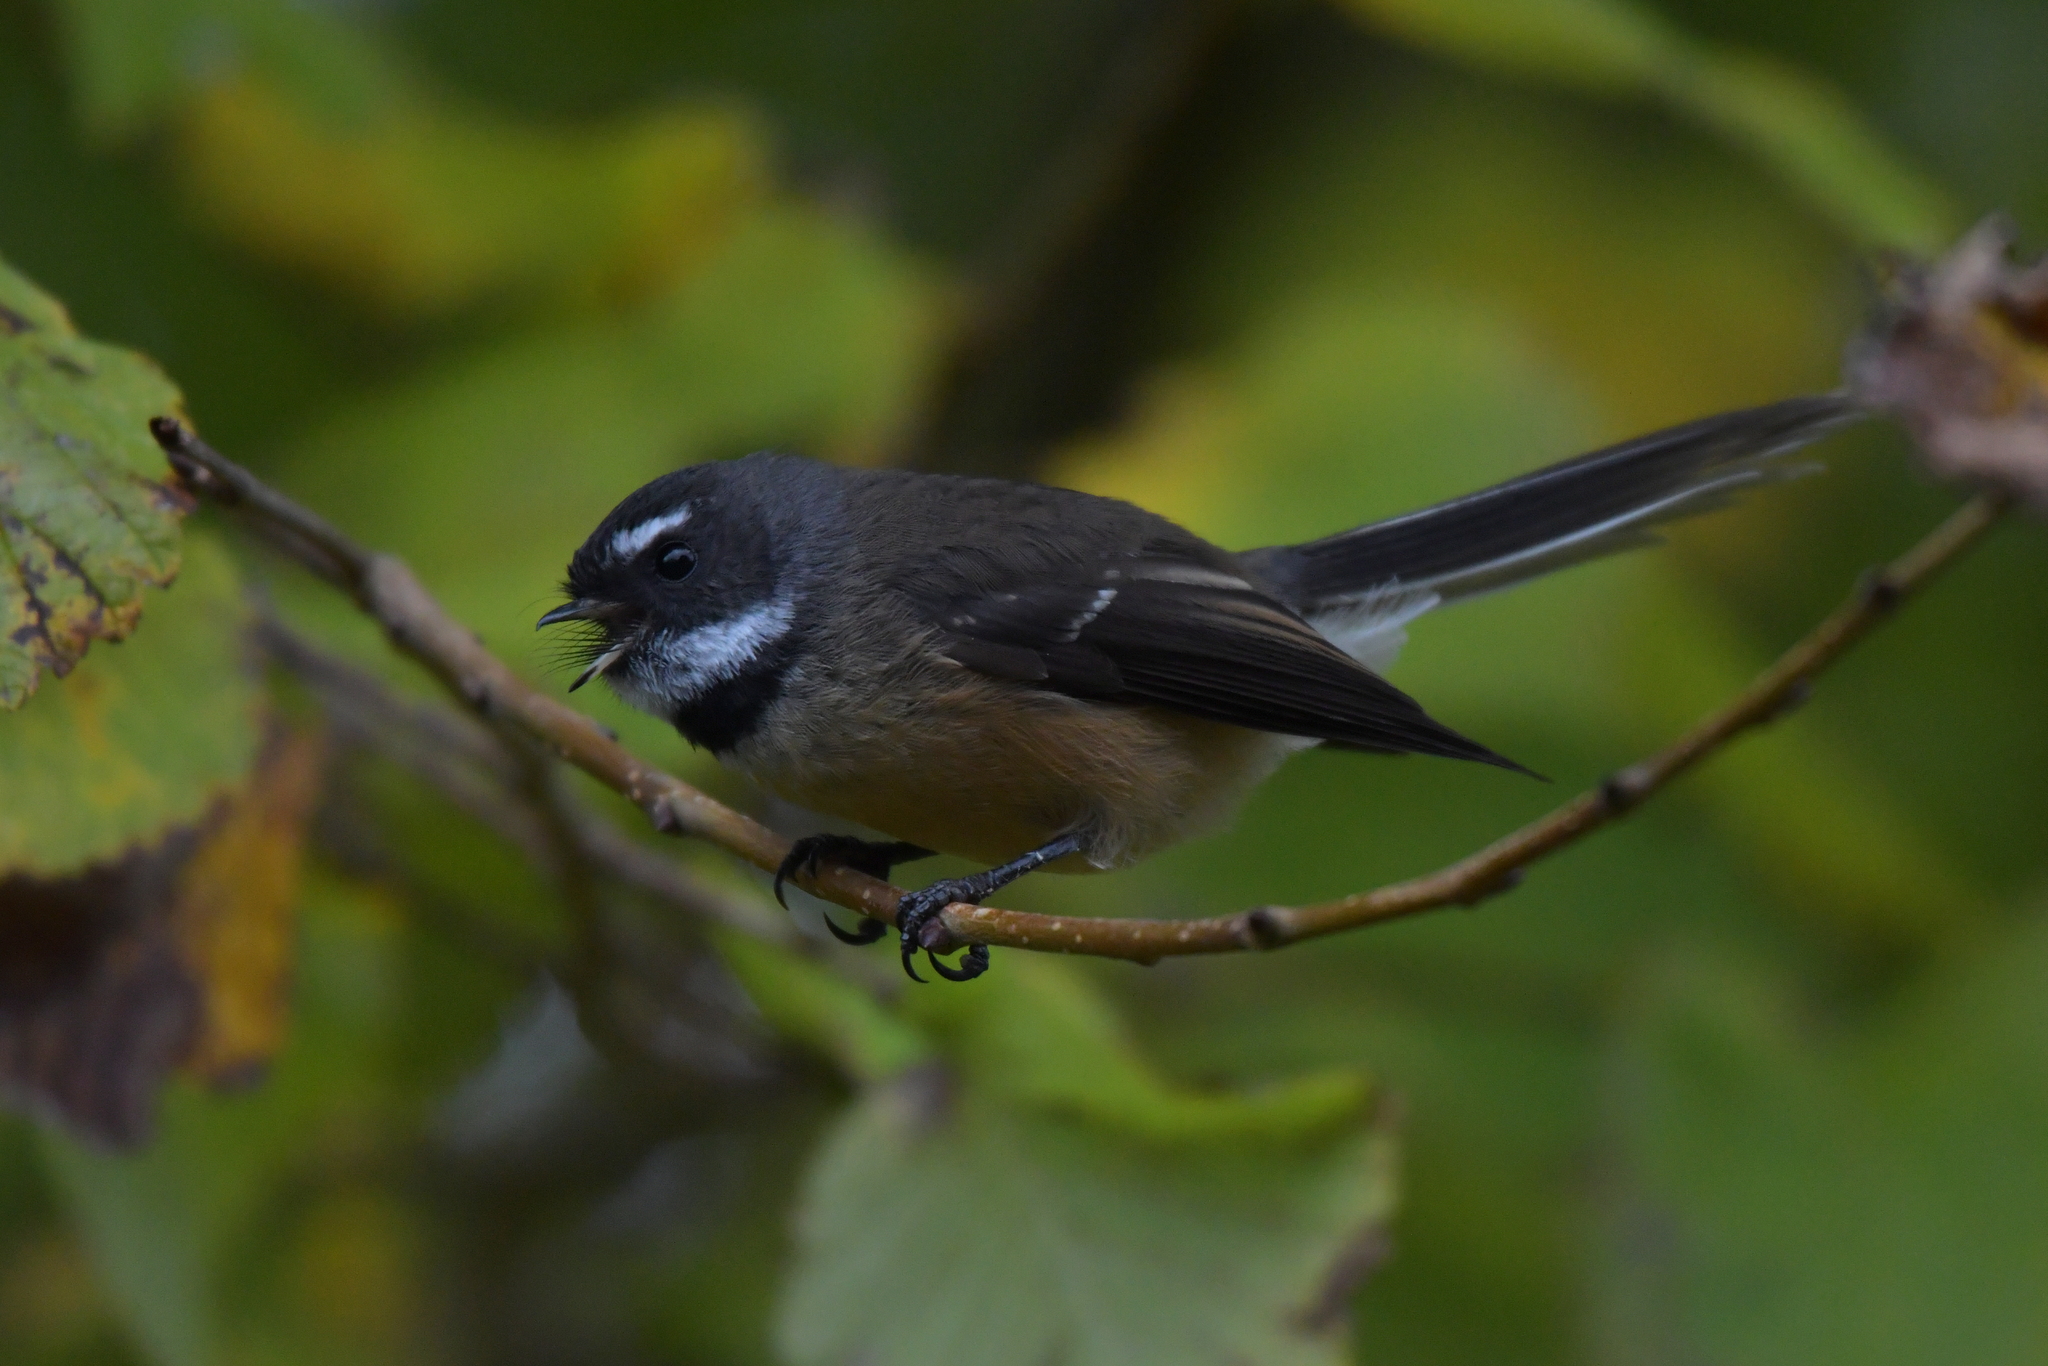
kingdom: Animalia
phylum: Chordata
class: Aves
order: Passeriformes
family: Rhipiduridae
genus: Rhipidura
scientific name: Rhipidura fuliginosa
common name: New zealand fantail
